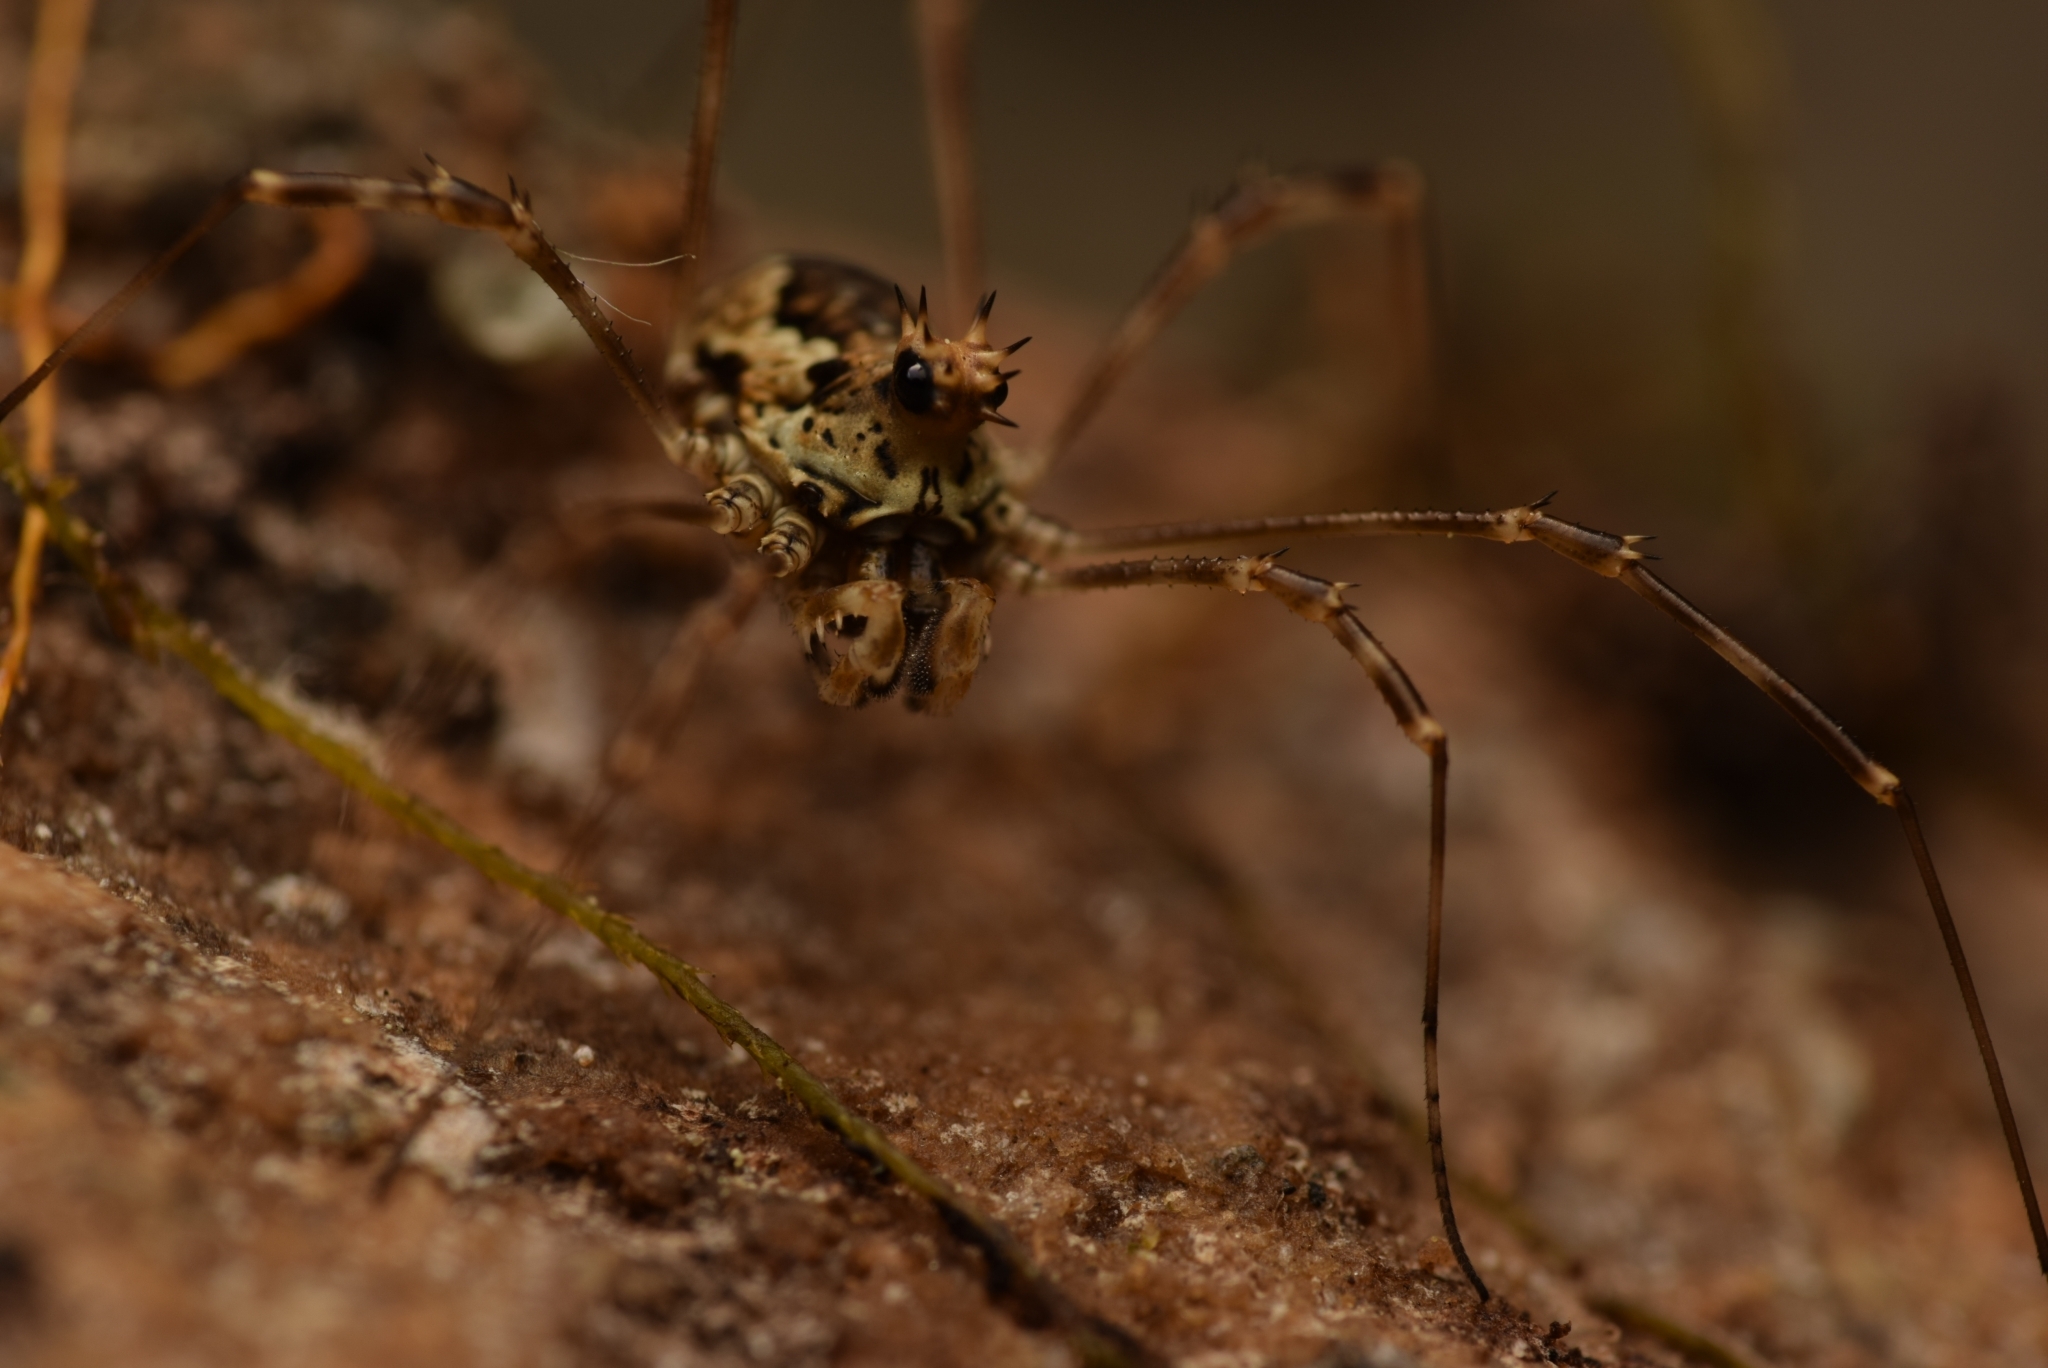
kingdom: Animalia
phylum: Arthropoda
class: Arachnida
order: Opiliones
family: Phalangiidae
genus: Megabunus
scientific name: Megabunus diadema
